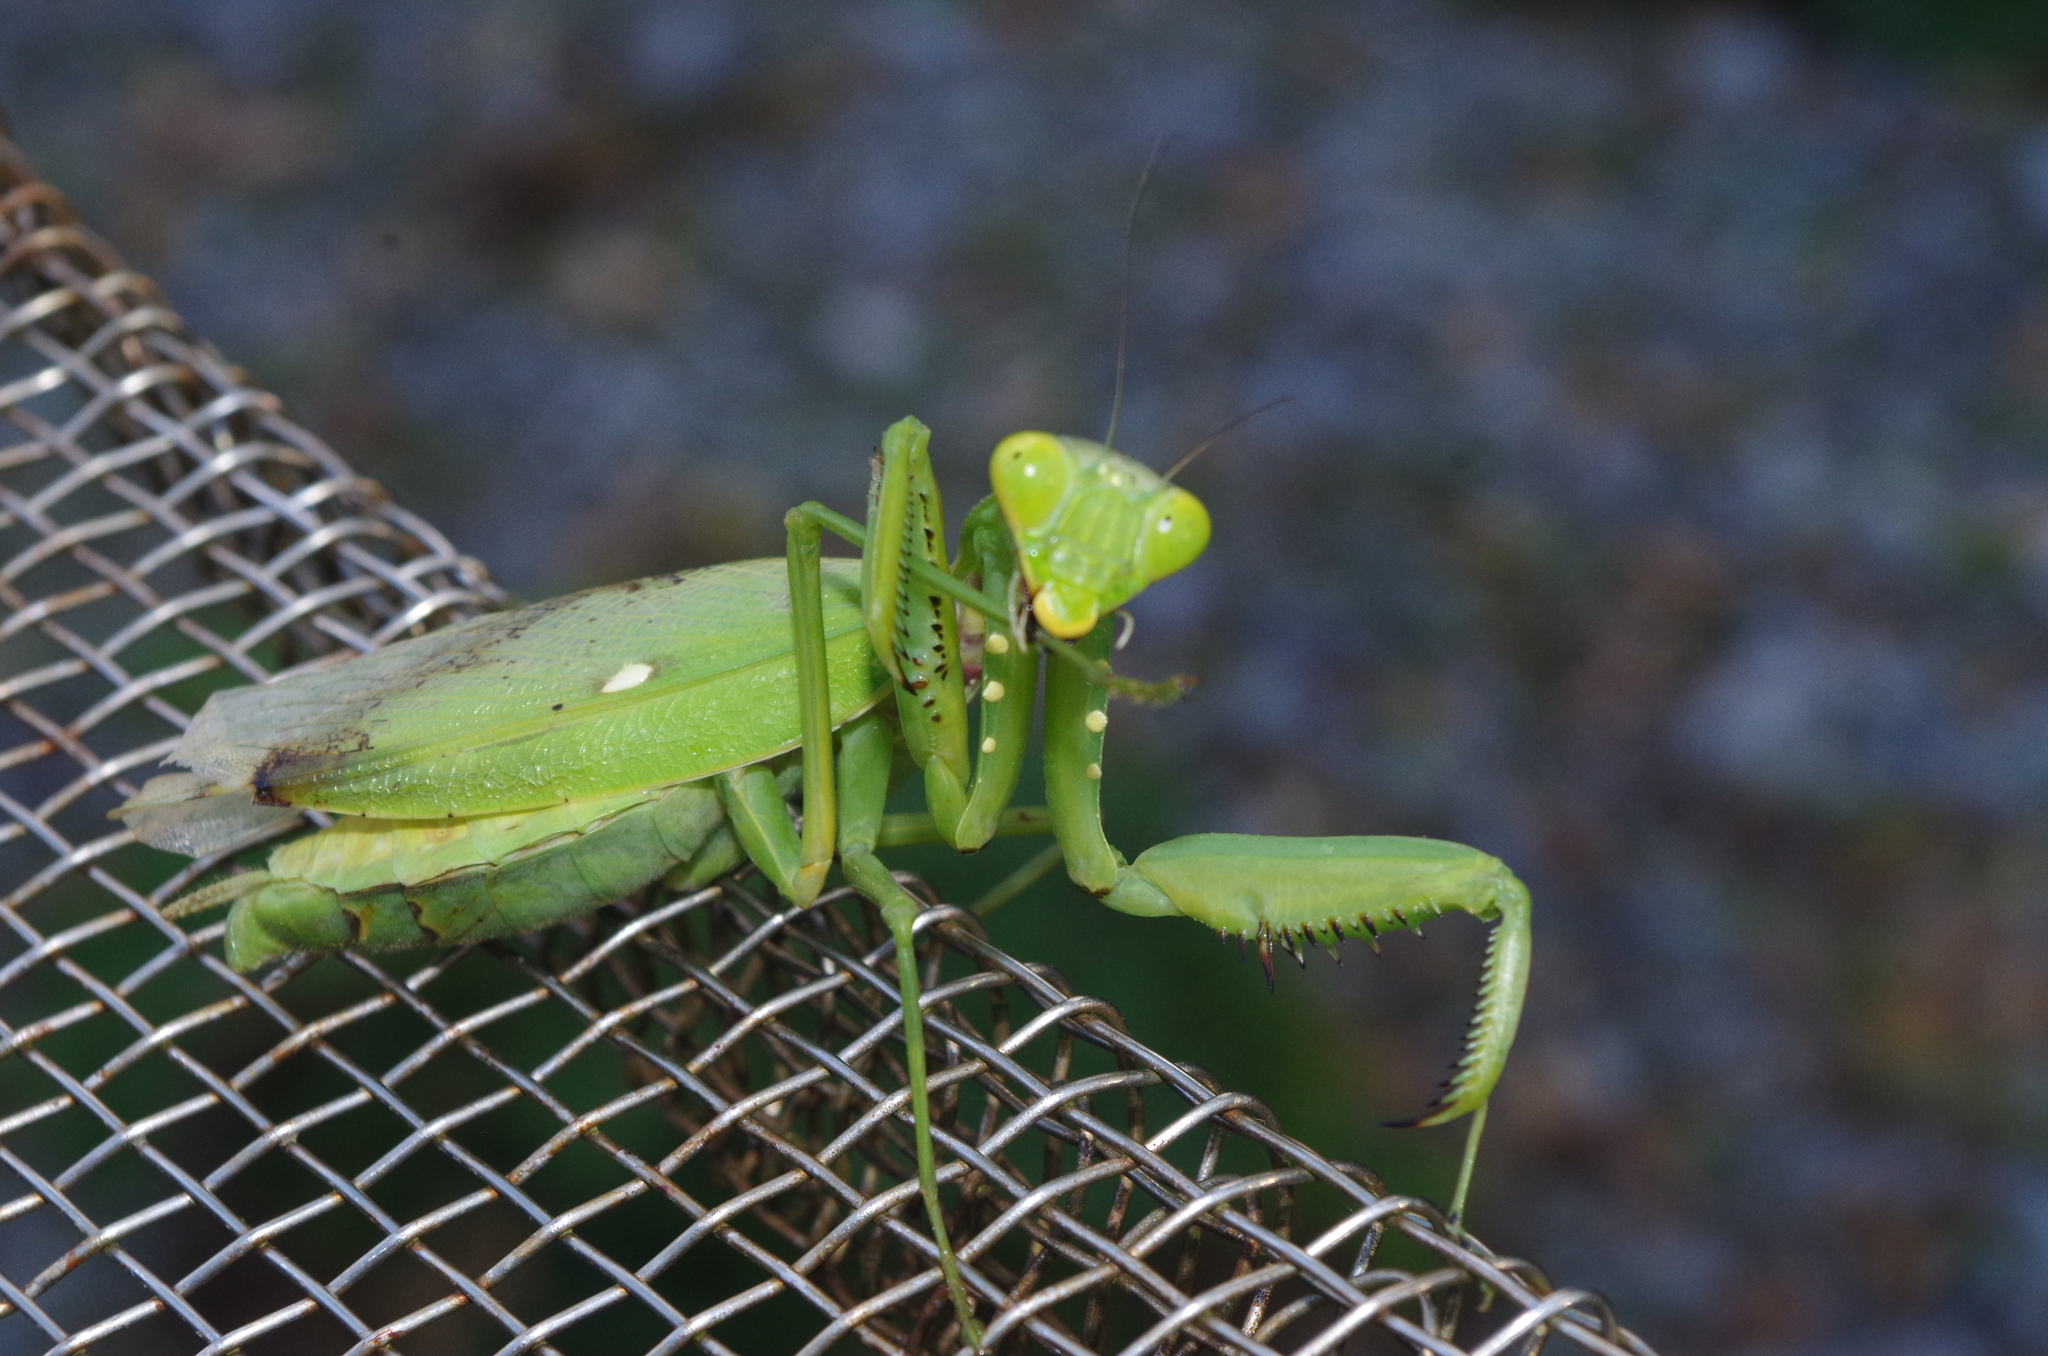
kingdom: Animalia
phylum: Arthropoda
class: Insecta
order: Mantodea
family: Mantidae
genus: Hierodula
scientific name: Hierodula patellifera
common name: Asian mantis
